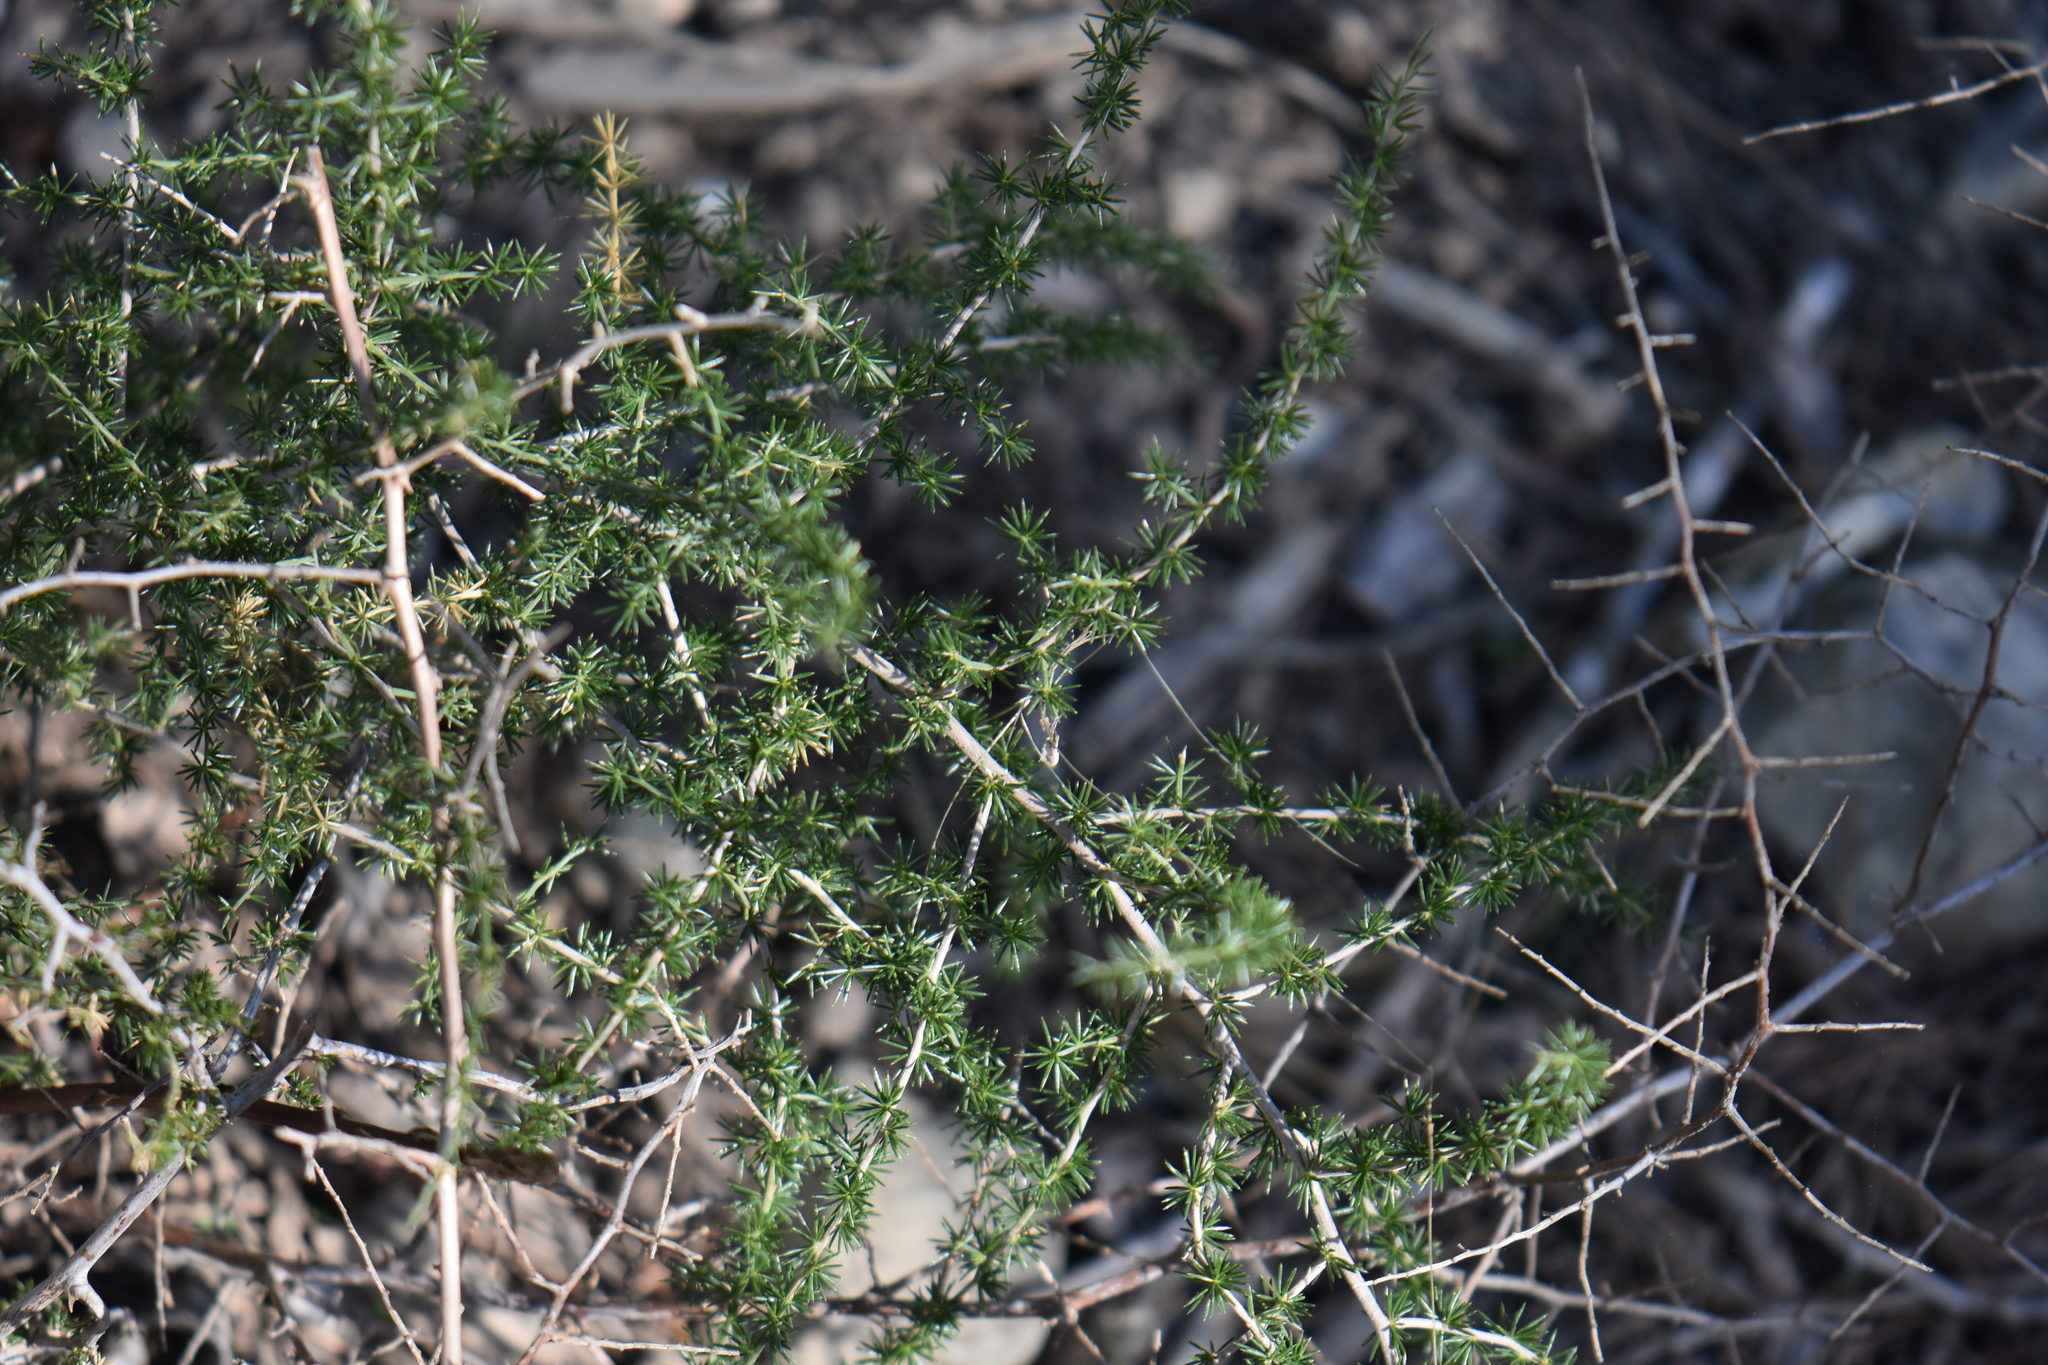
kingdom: Plantae
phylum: Tracheophyta
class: Liliopsida
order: Asparagales
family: Asparagaceae
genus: Asparagus
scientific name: Asparagus acutifolius
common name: Wild asparagus
